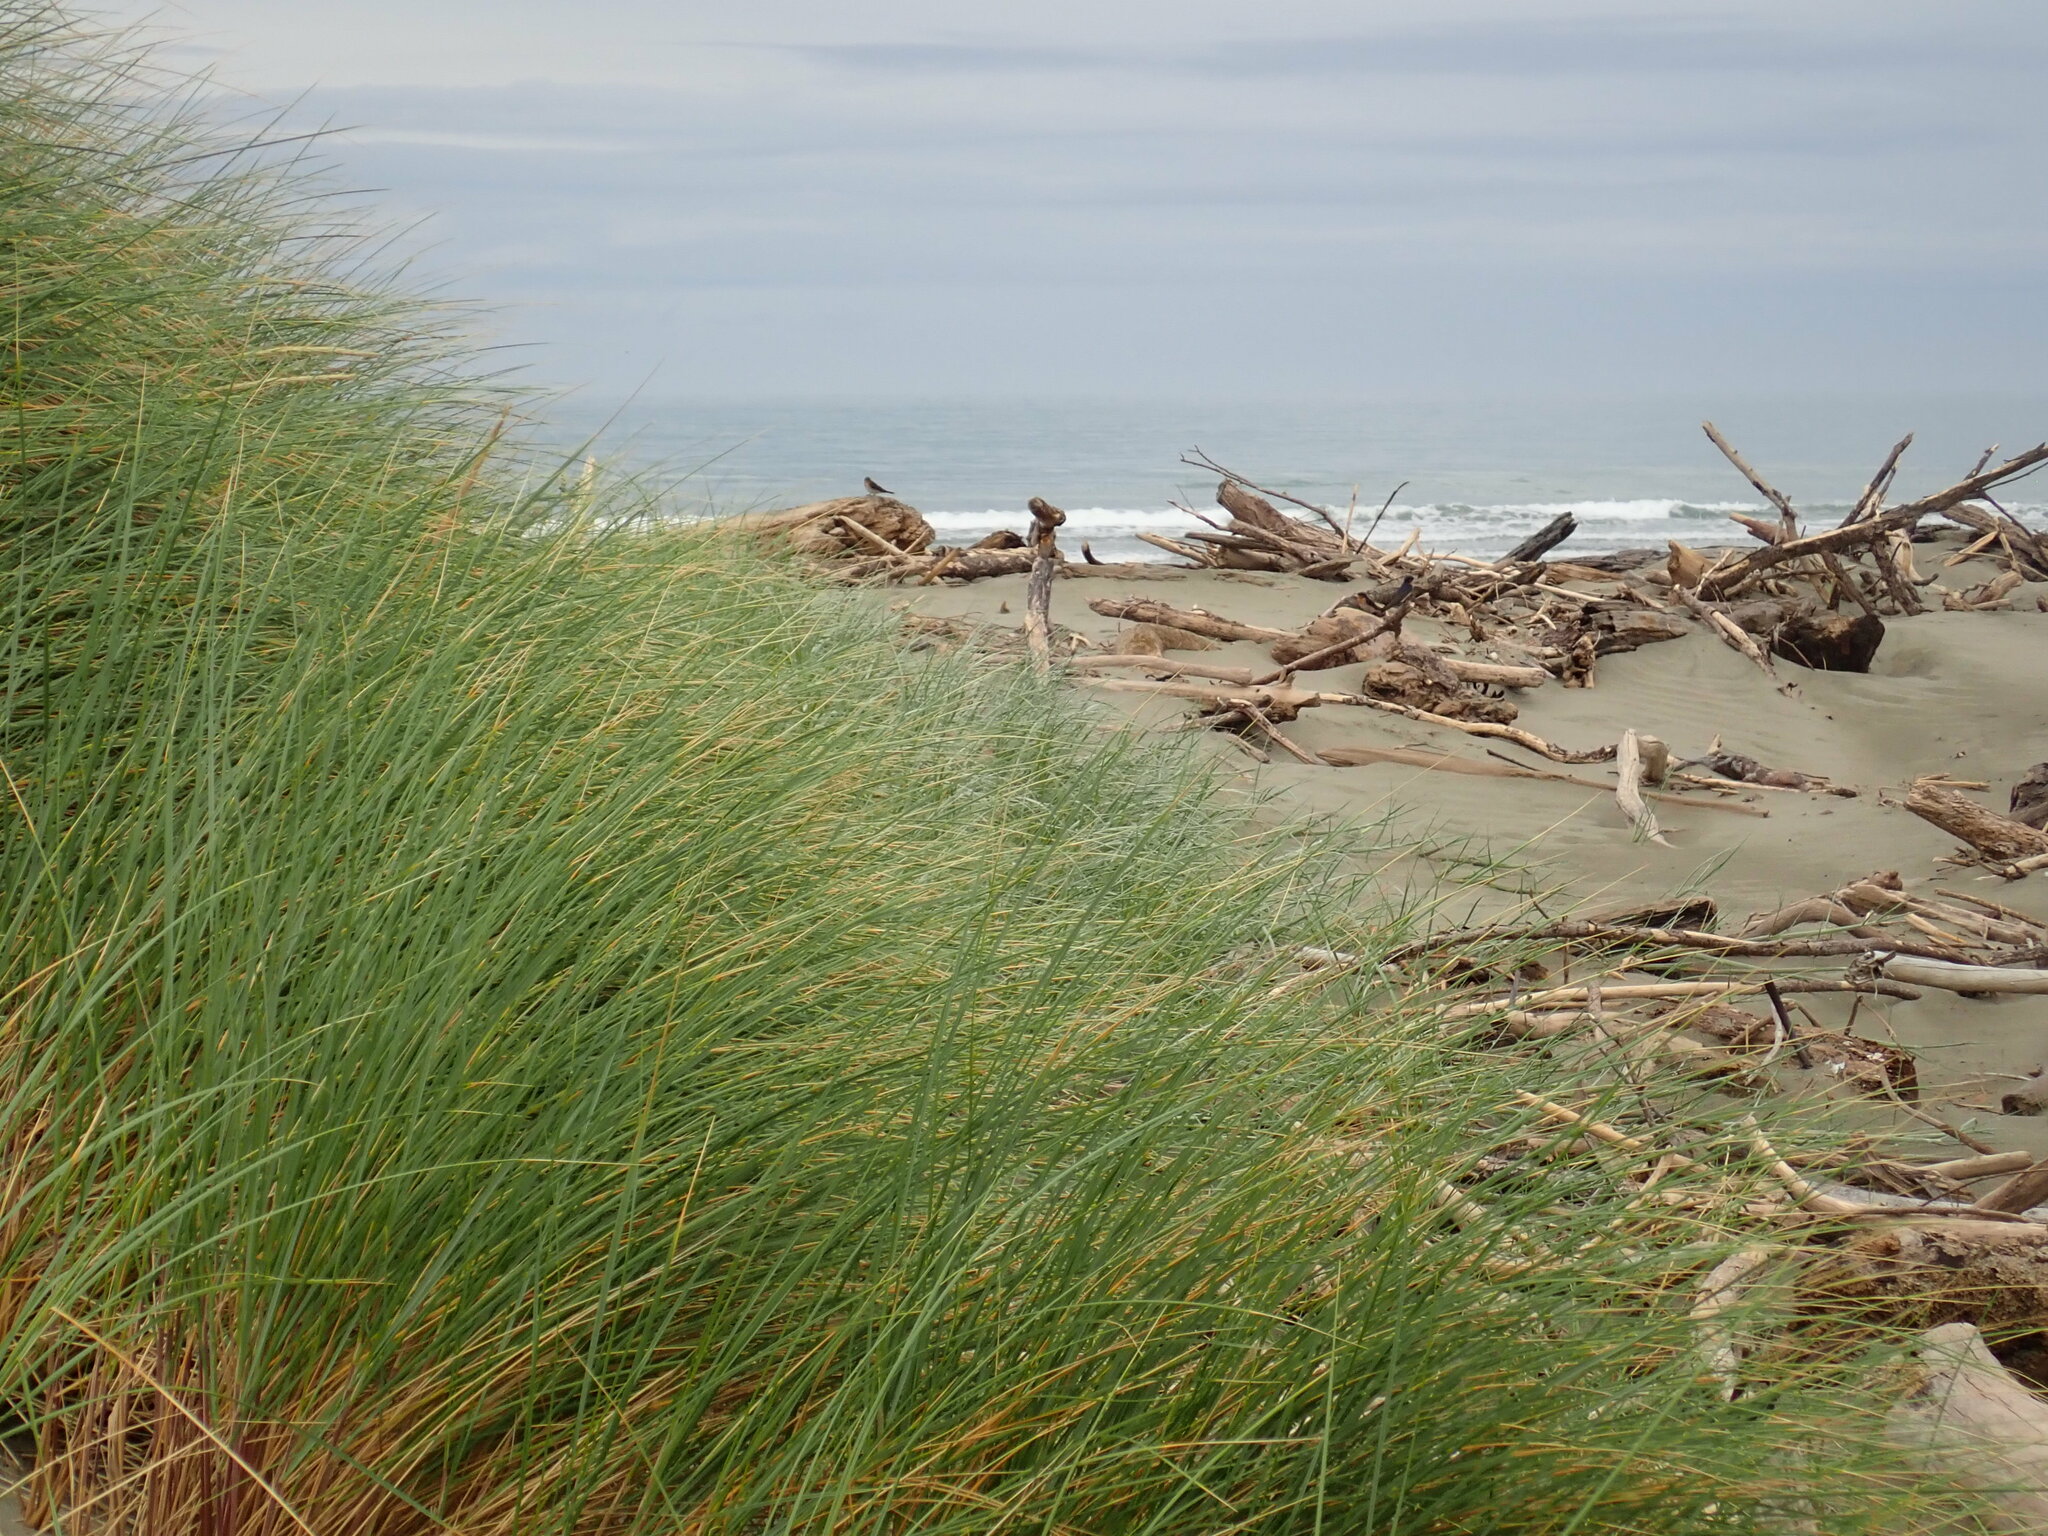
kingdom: Animalia
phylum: Chordata
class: Aves
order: Passeriformes
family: Hirundinidae
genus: Hirundo
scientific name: Hirundo neoxena
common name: Welcome swallow
